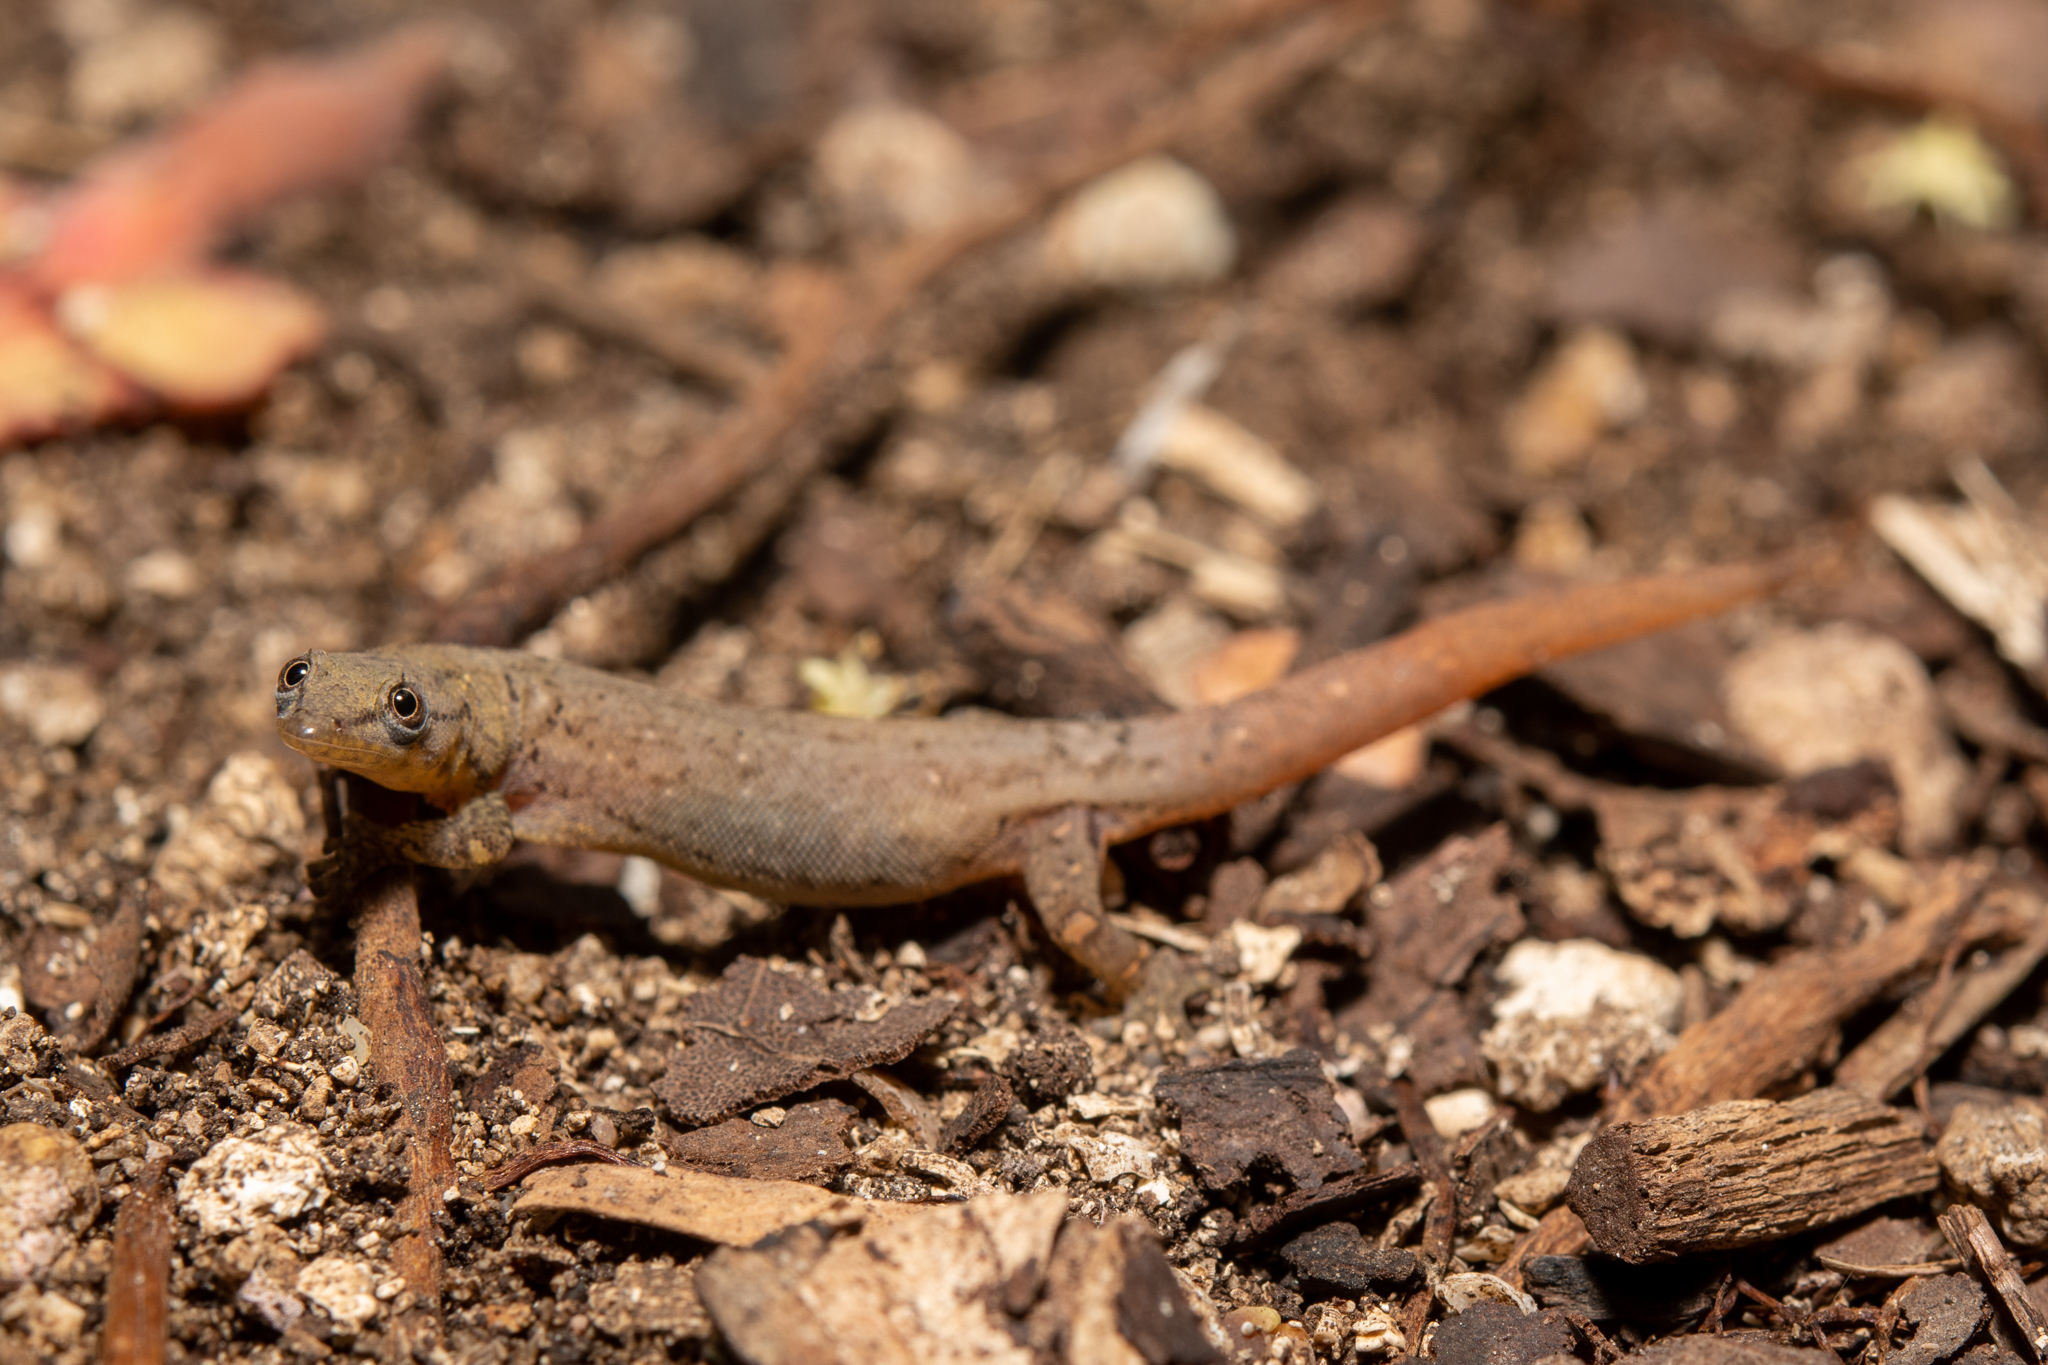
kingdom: Animalia
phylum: Chordata
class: Squamata
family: Sphaerodactylidae
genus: Sphaerodactylus
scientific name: Sphaerodactylus poindexteri
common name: Utila small-scaled geckolet
